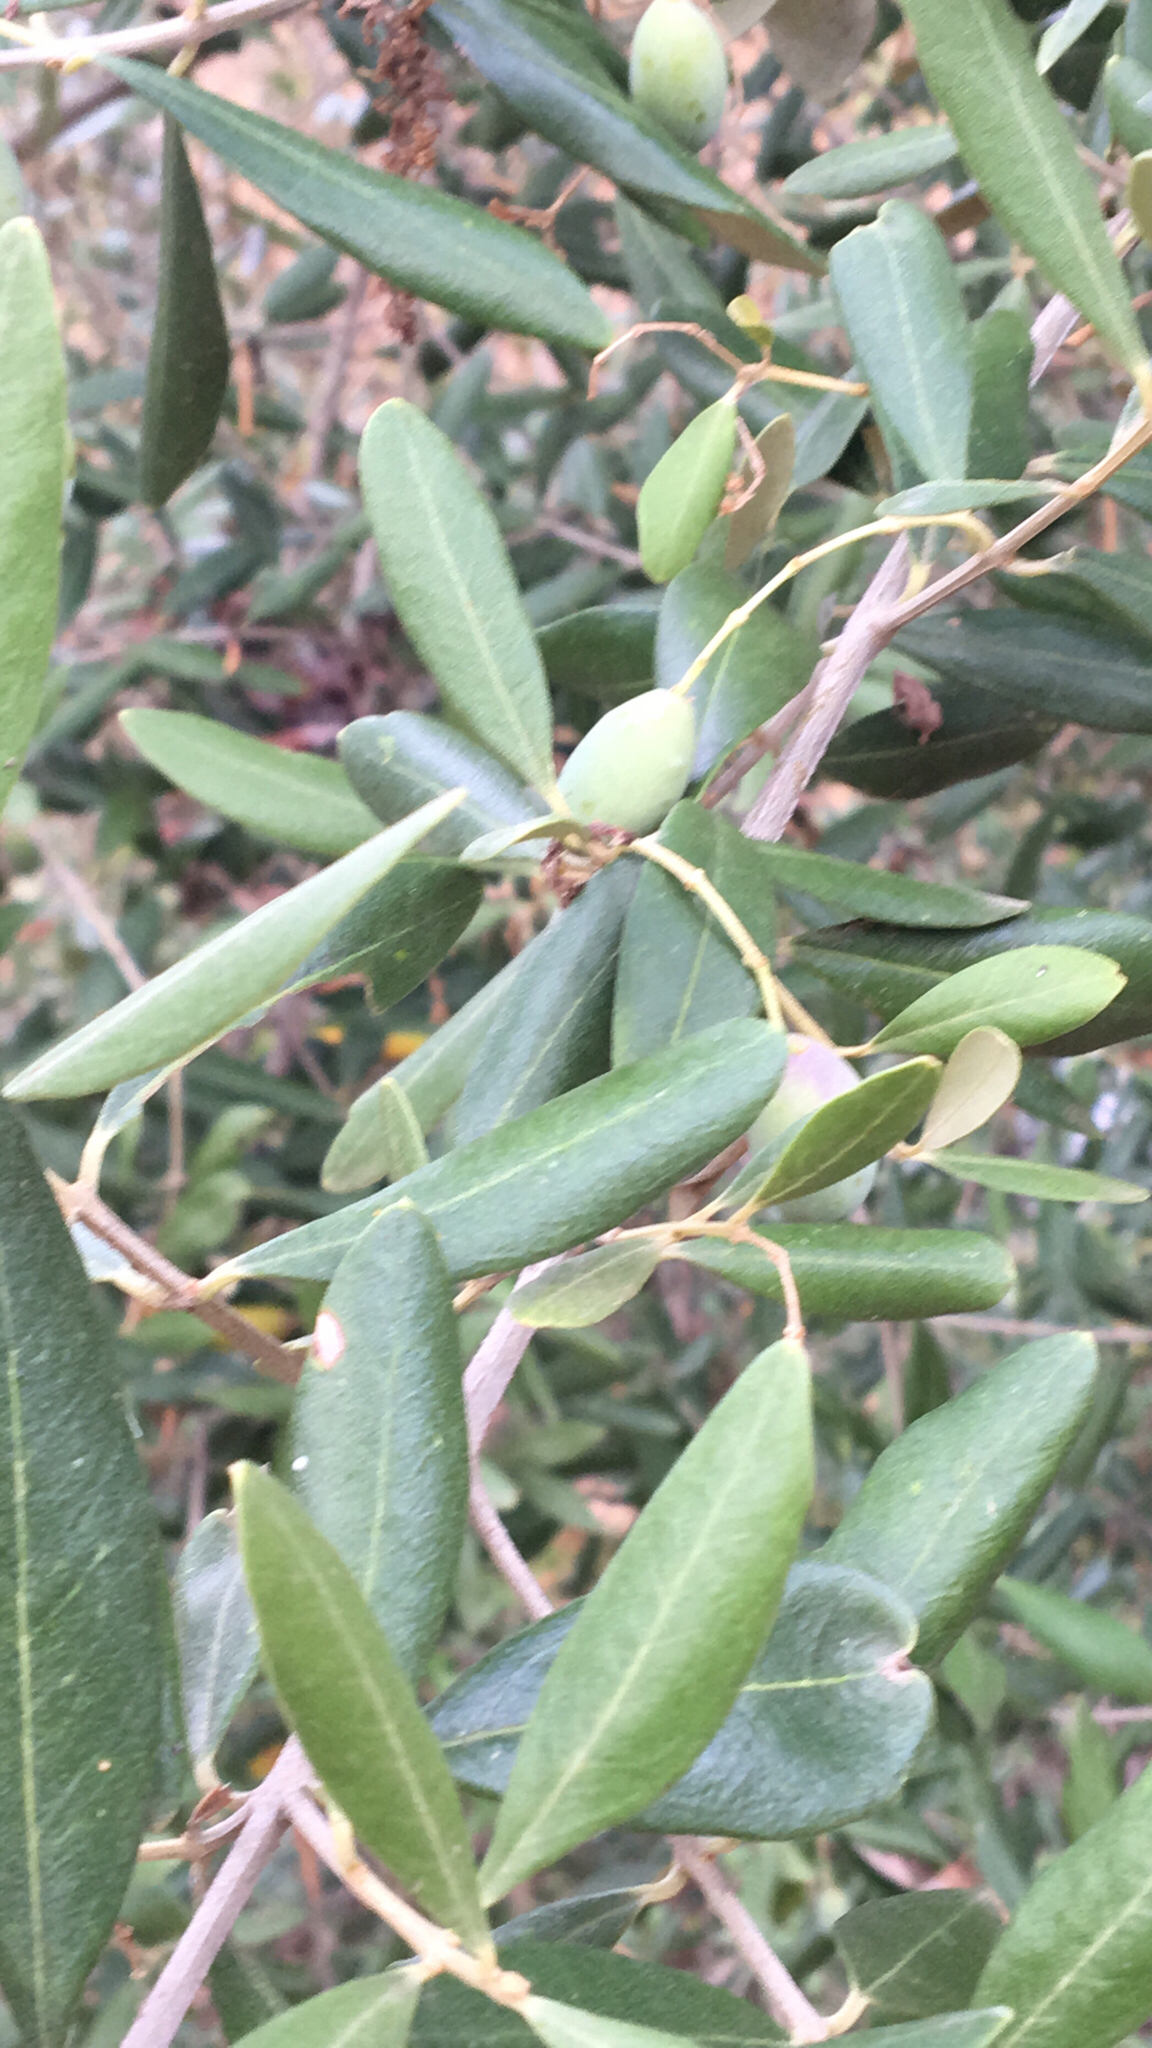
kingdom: Plantae
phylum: Tracheophyta
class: Magnoliopsida
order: Lamiales
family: Oleaceae
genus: Olea
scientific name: Olea europaea
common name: Olive
